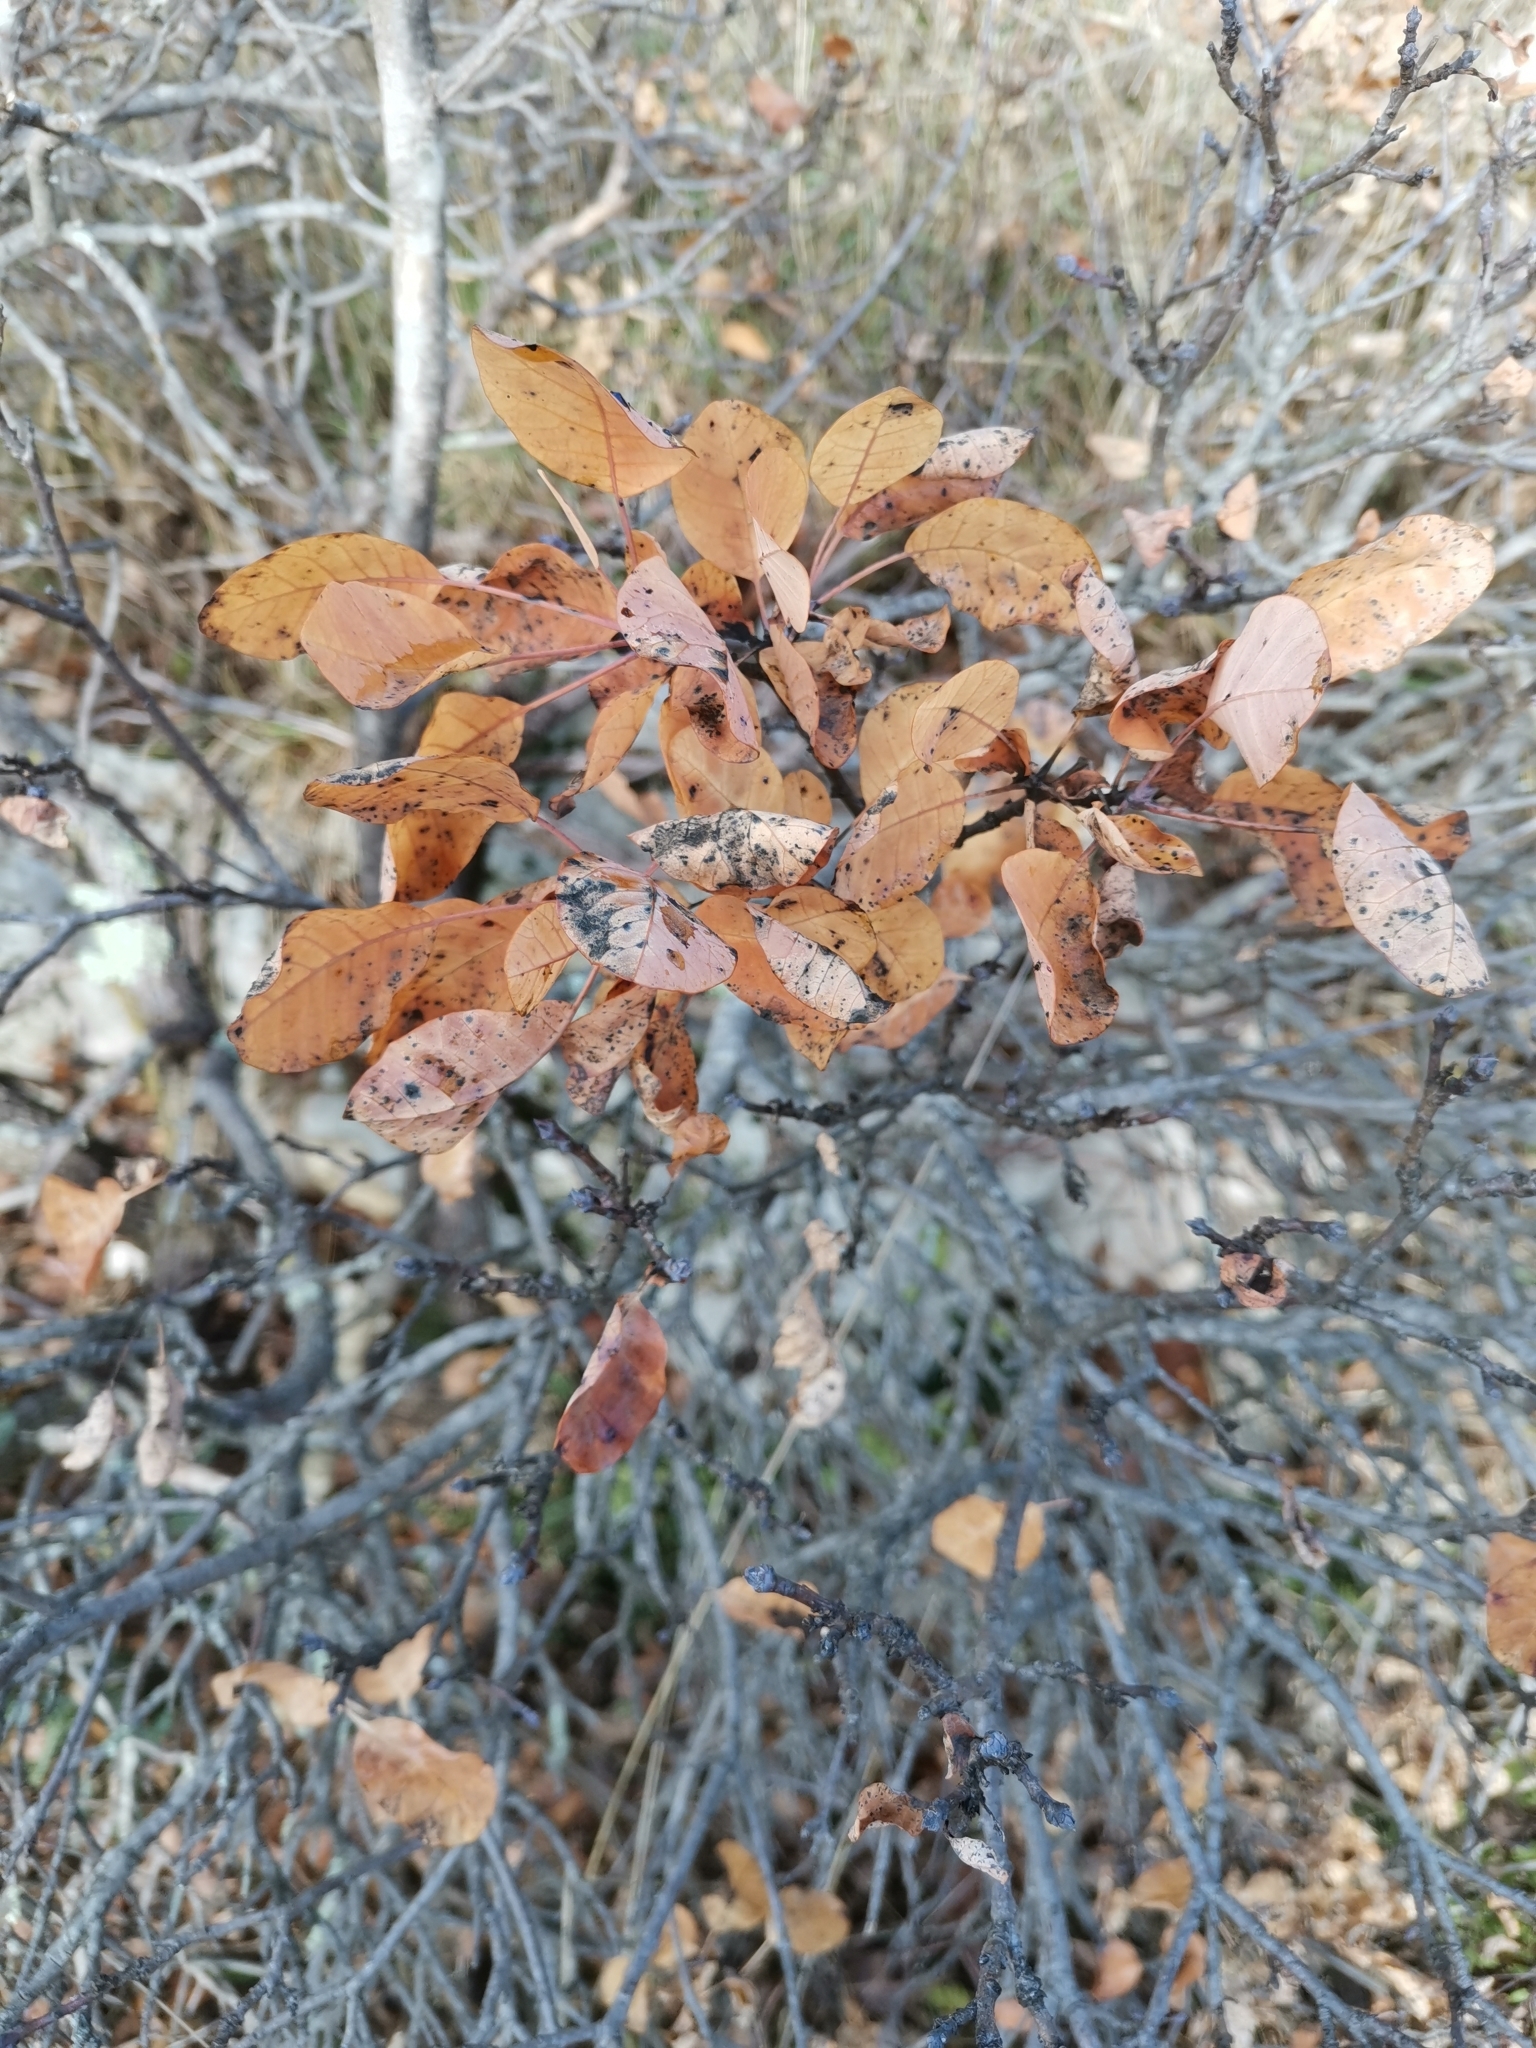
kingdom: Plantae
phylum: Tracheophyta
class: Magnoliopsida
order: Sapindales
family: Anacardiaceae
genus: Cotinus
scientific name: Cotinus coggygria
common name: Smoke-tree
